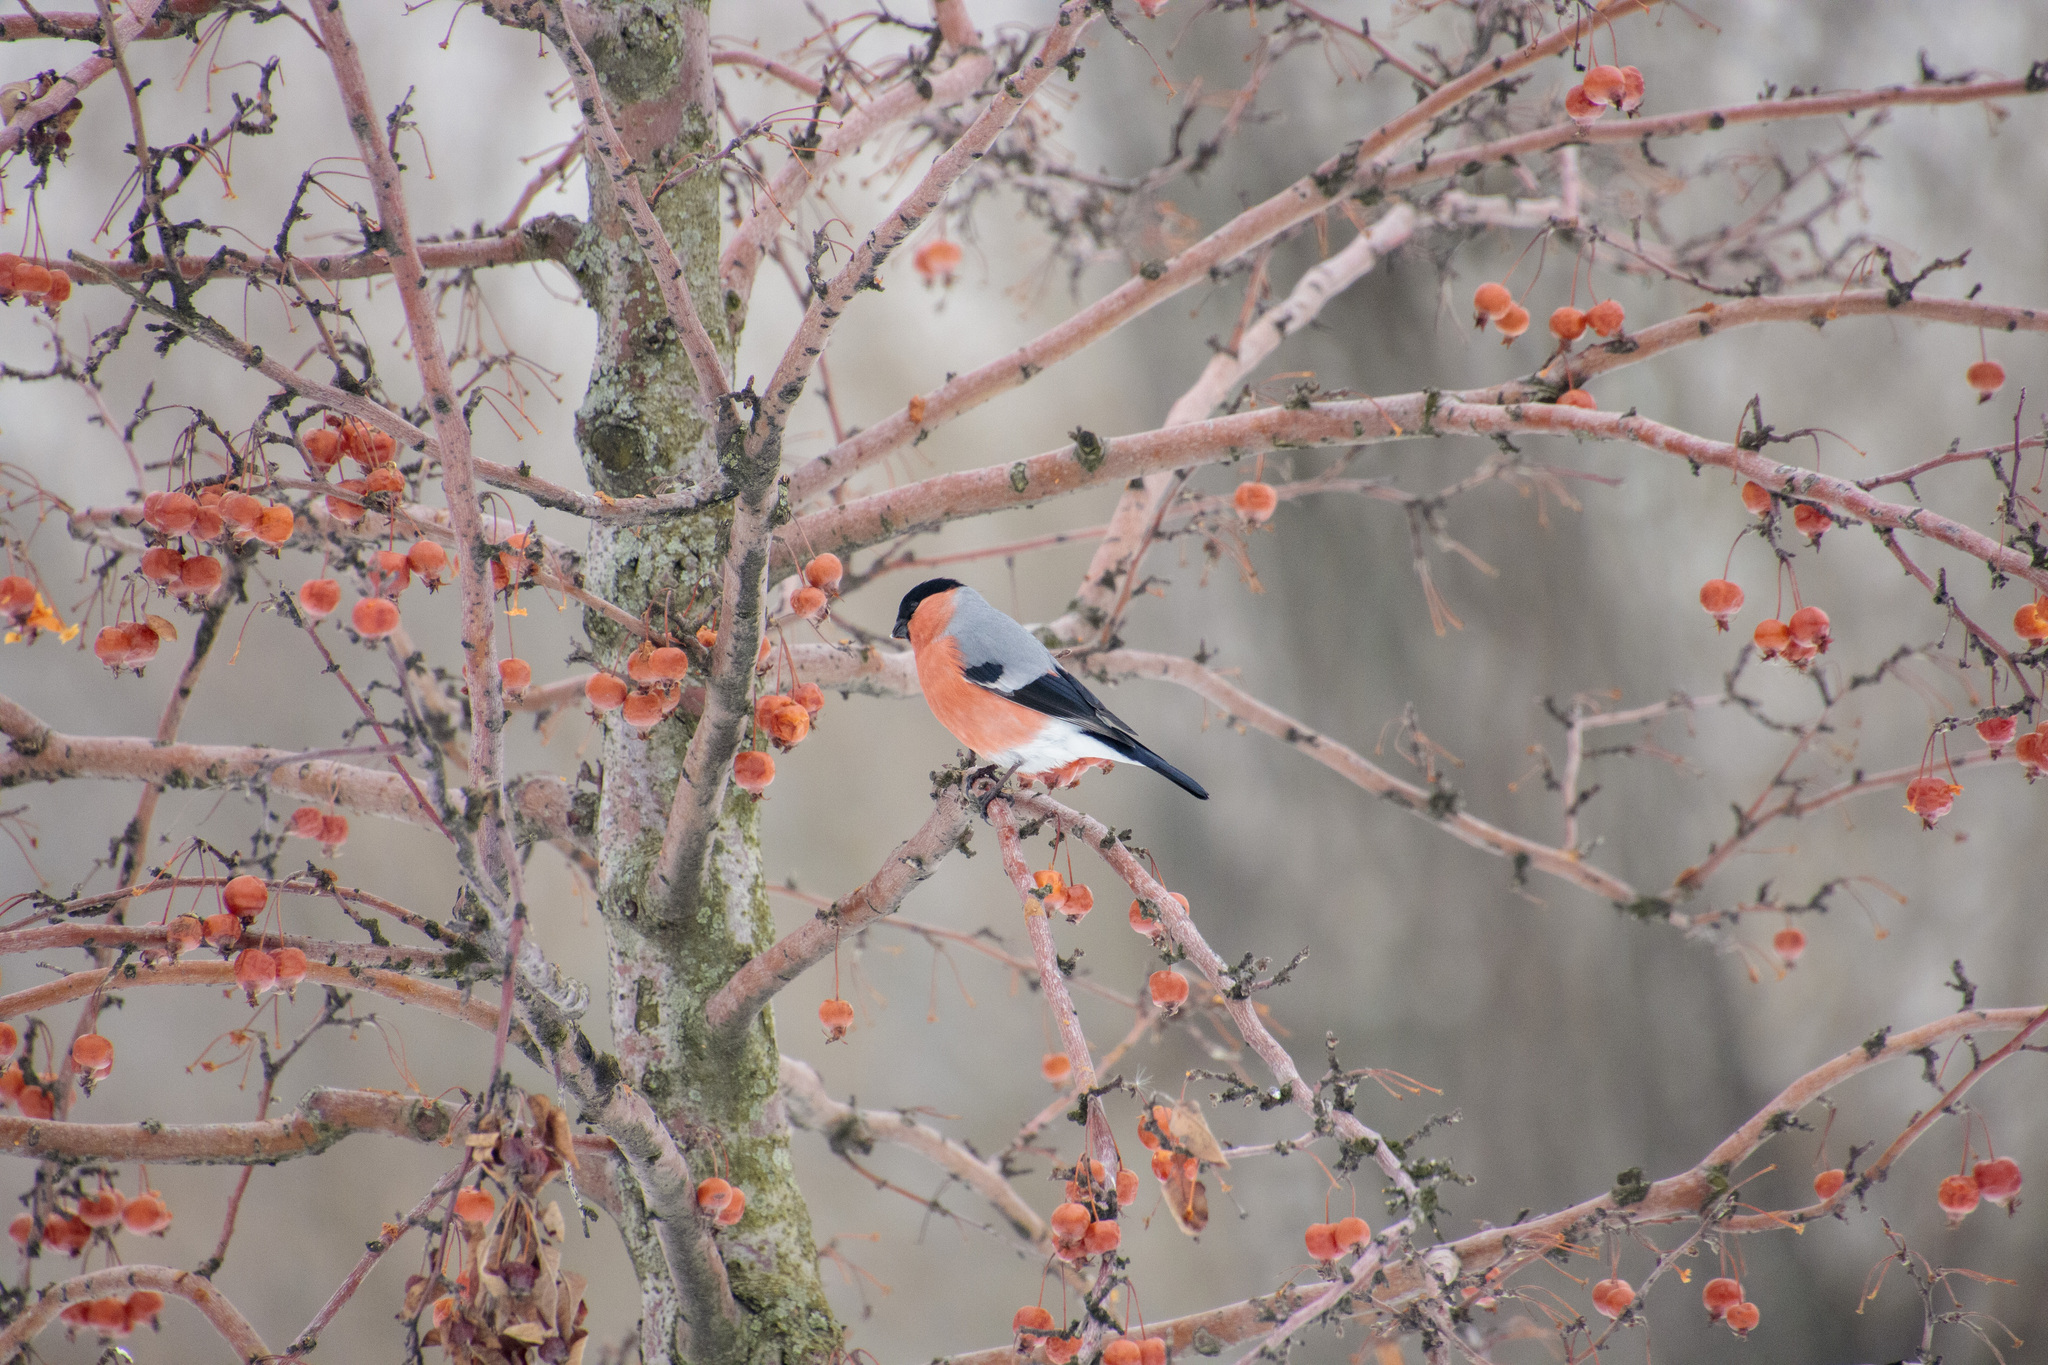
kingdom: Animalia
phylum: Chordata
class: Aves
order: Passeriformes
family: Fringillidae
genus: Pyrrhula
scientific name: Pyrrhula pyrrhula
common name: Eurasian bullfinch
